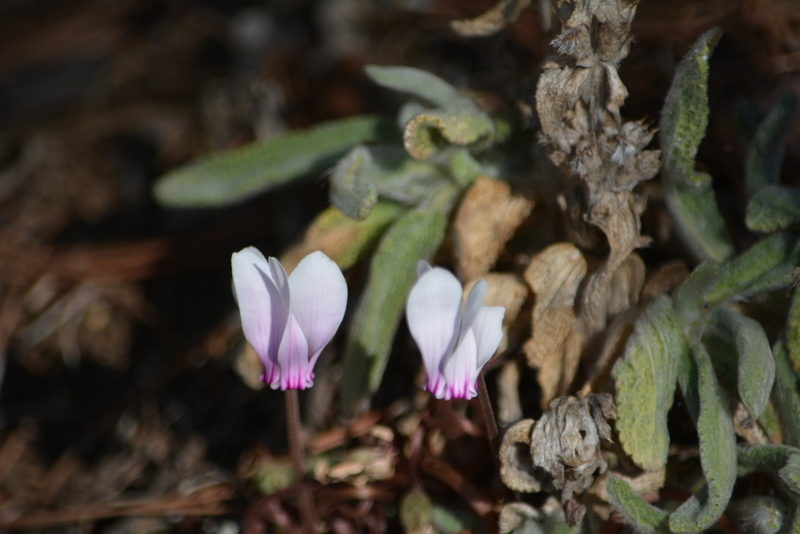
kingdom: Plantae
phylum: Tracheophyta
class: Magnoliopsida
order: Ericales
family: Primulaceae
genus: Cyclamen
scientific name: Cyclamen graecum
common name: Greek cyclamen
